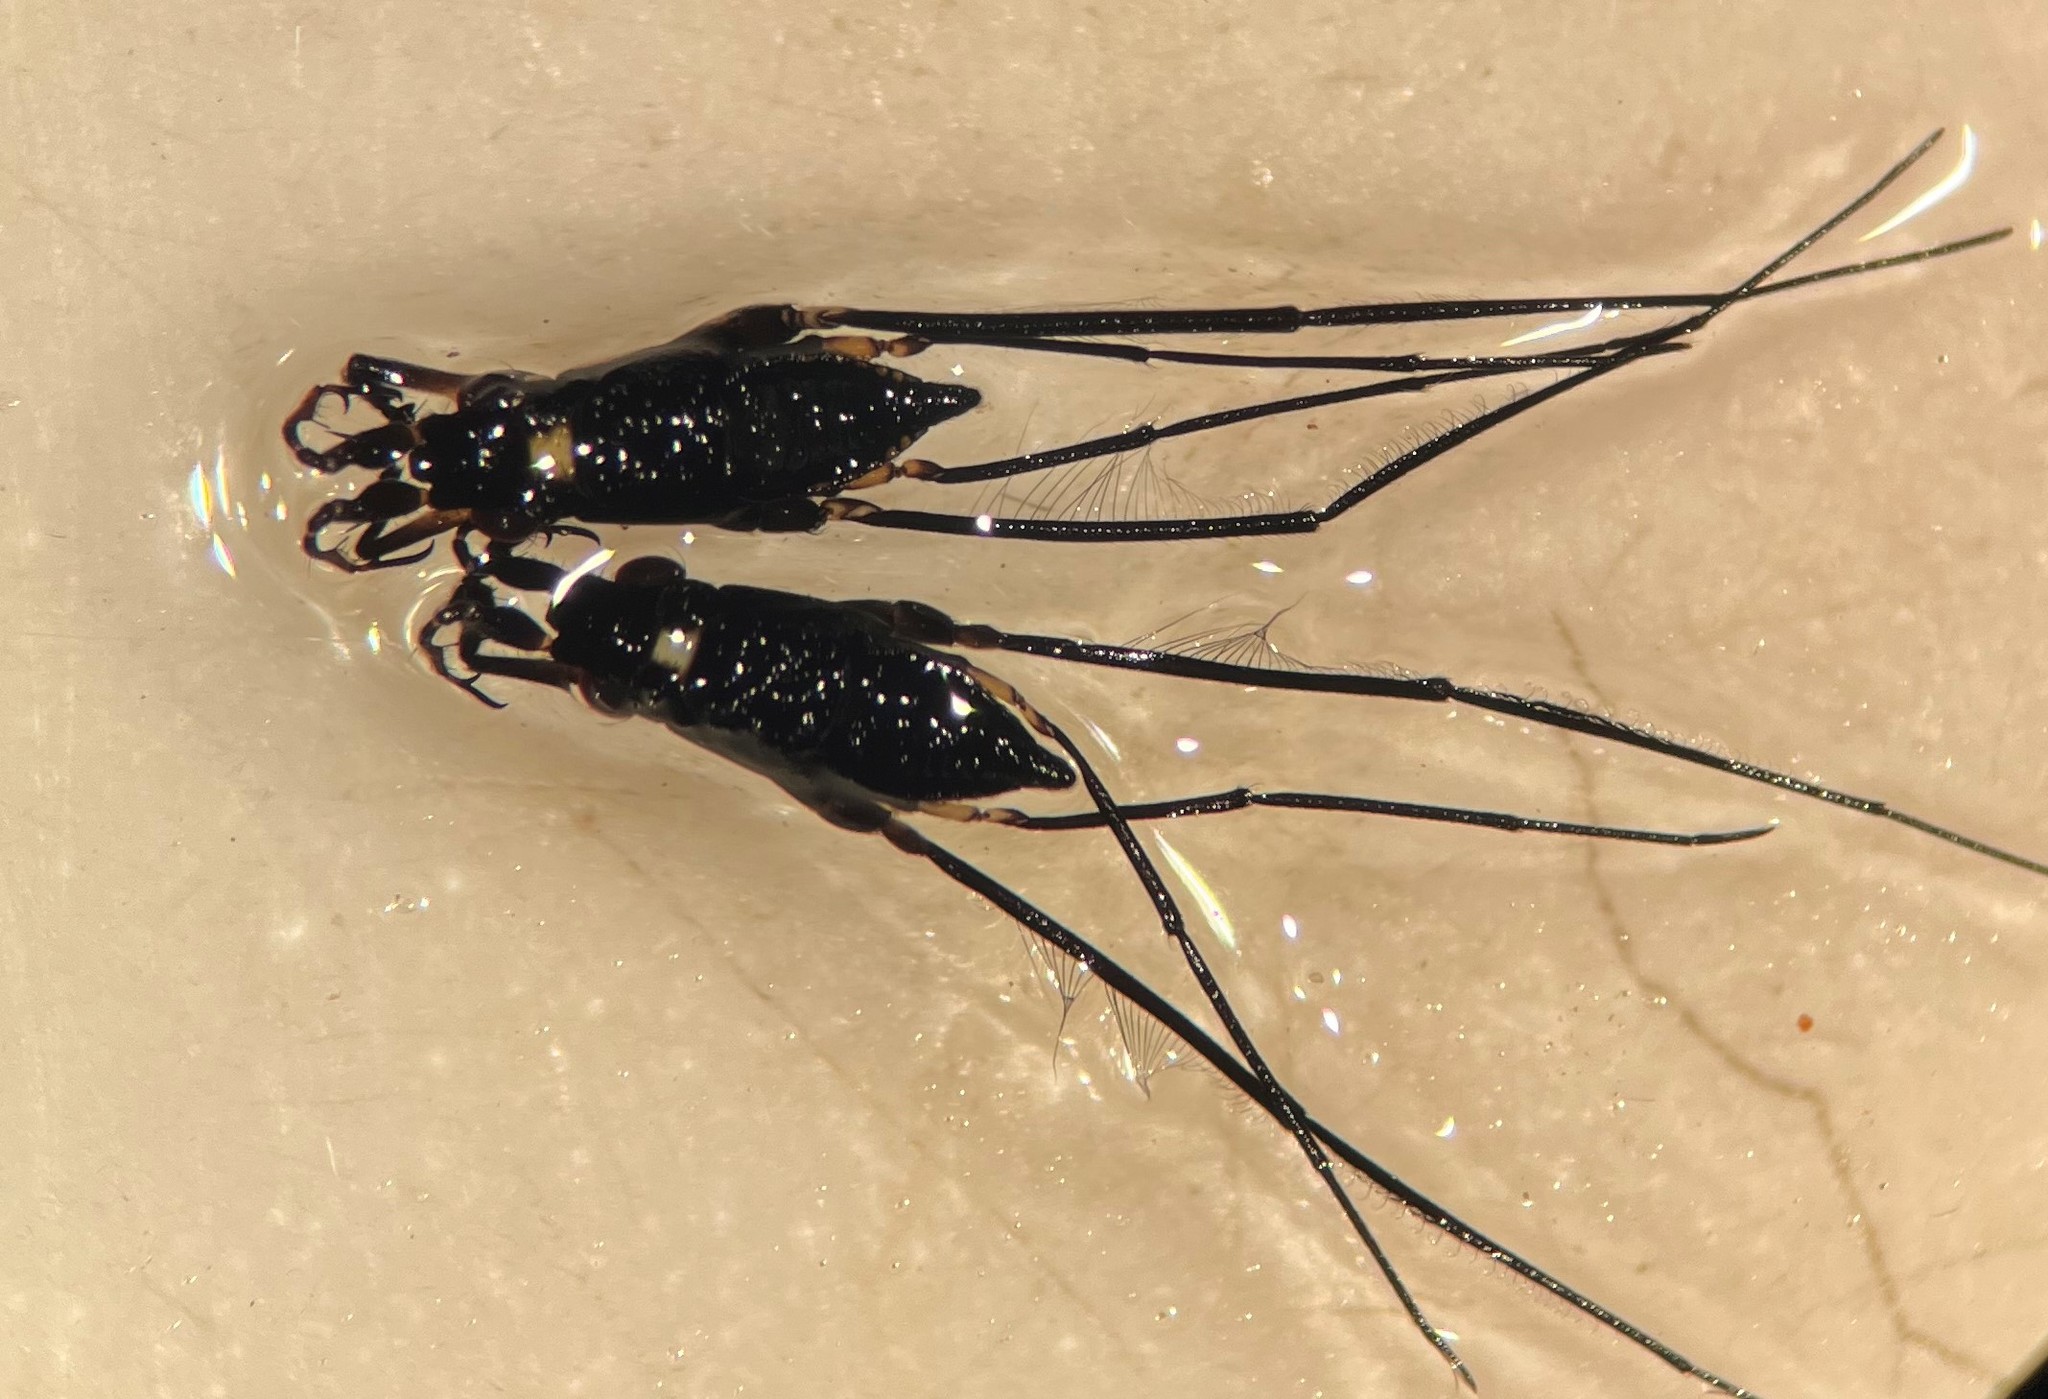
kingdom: Animalia
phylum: Arthropoda
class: Insecta
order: Hemiptera
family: Gerridae
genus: Rheumatobates
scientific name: Rheumatobates tenuipes
